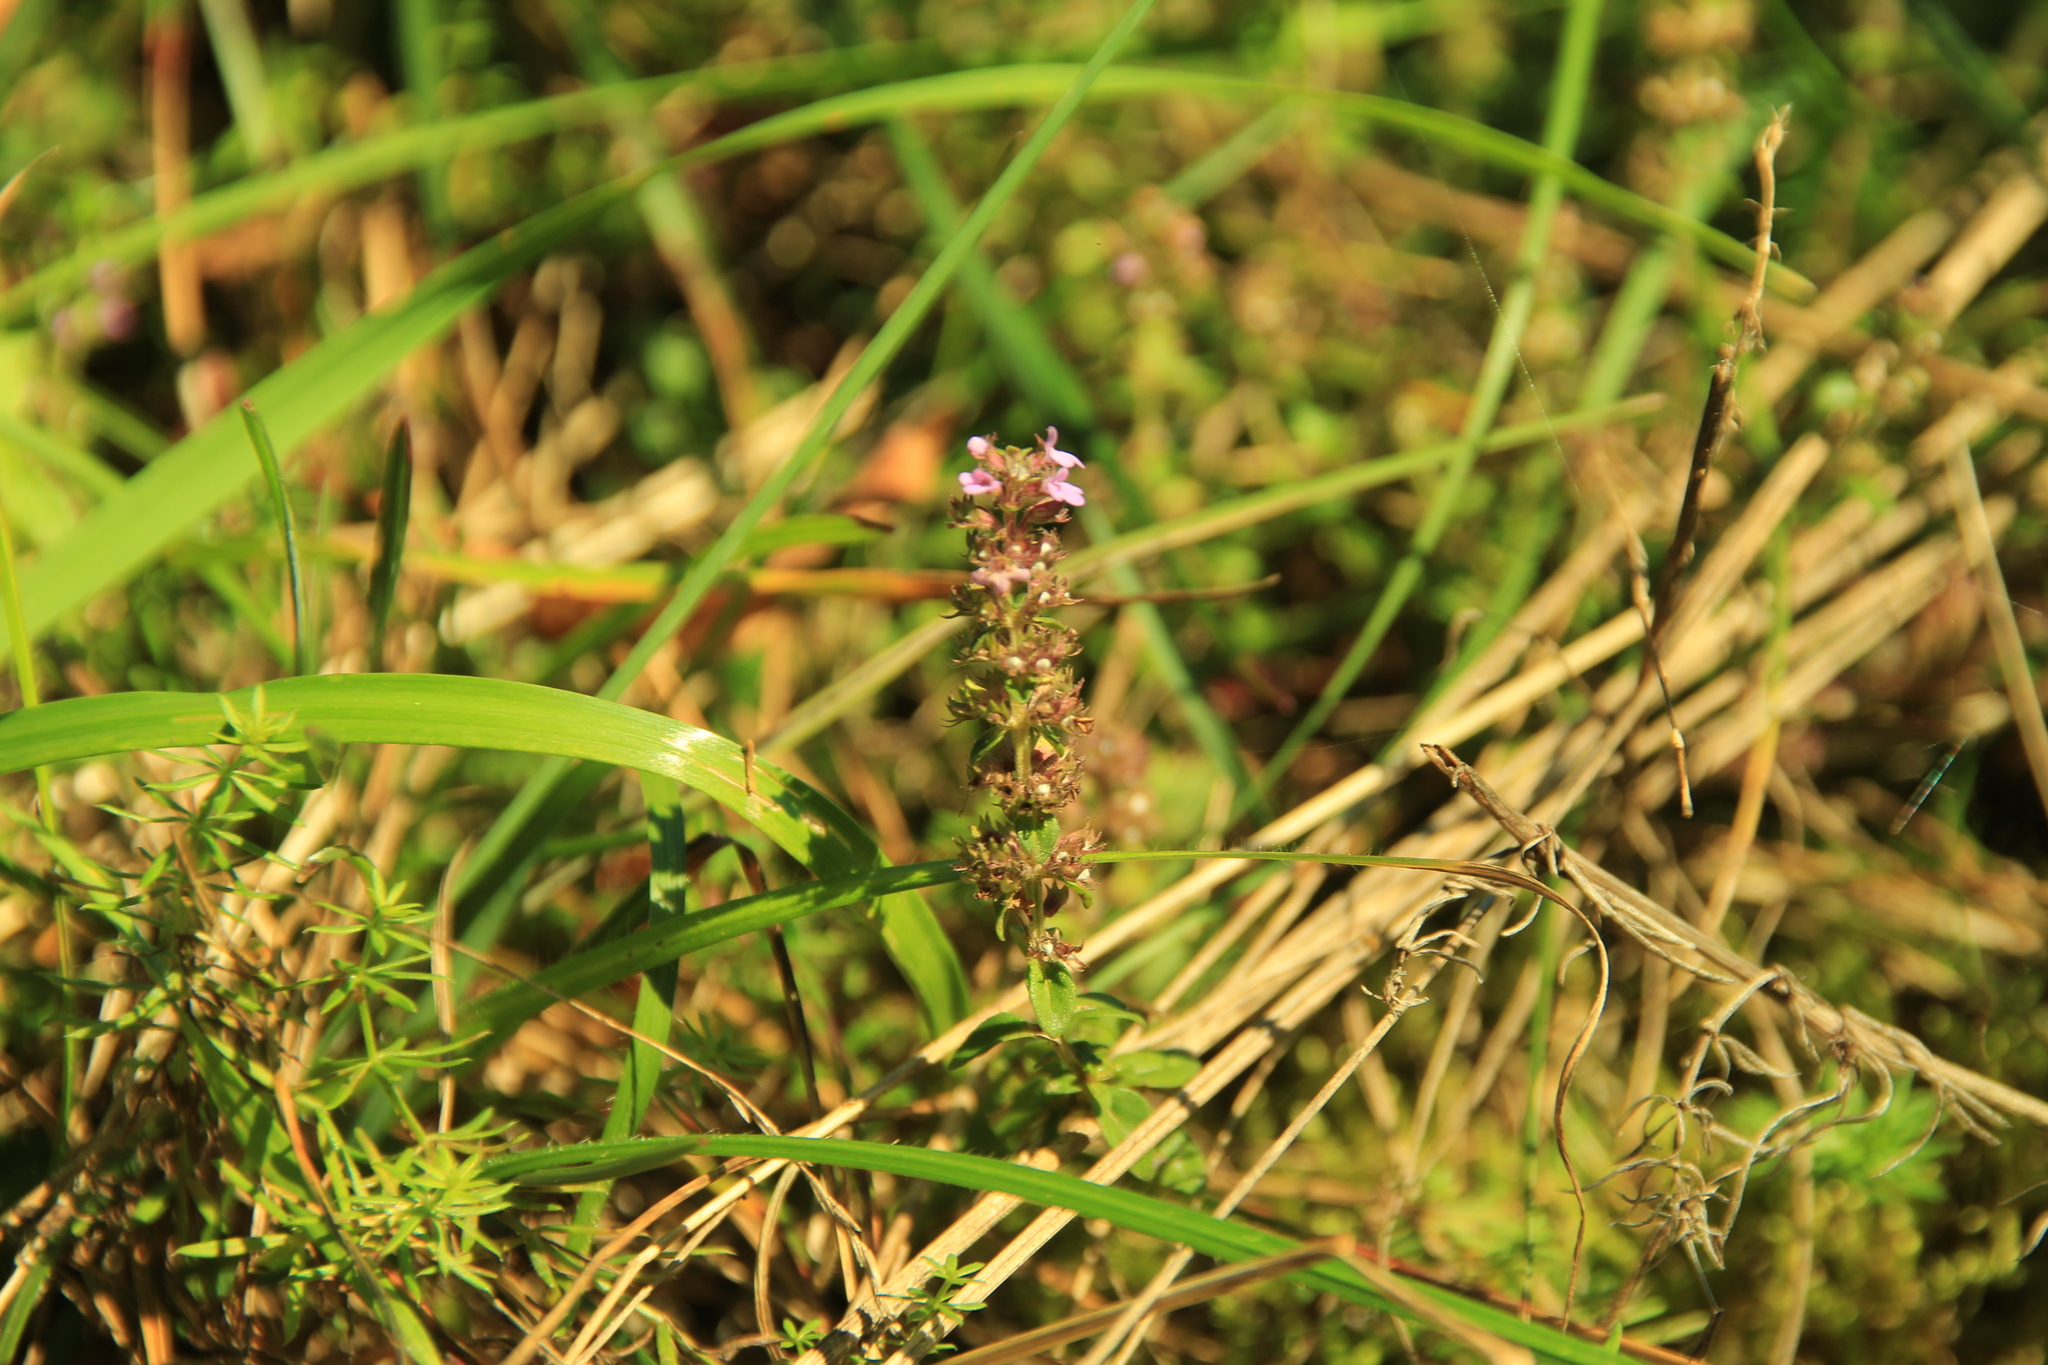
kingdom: Plantae
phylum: Tracheophyta
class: Magnoliopsida
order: Lamiales
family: Lamiaceae
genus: Thymus
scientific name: Thymus pulegioides
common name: Large thyme
